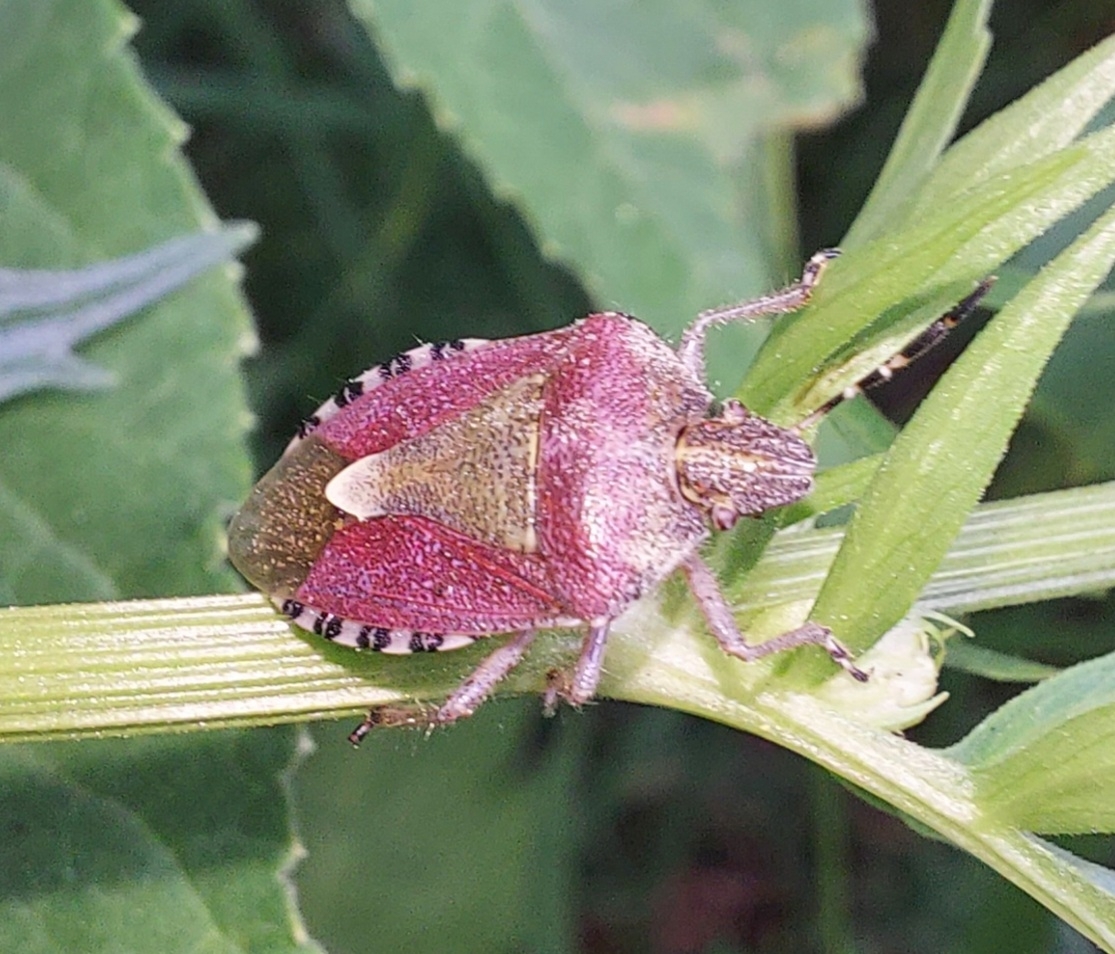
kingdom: Animalia
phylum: Arthropoda
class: Insecta
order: Hemiptera
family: Pentatomidae
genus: Dolycoris
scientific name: Dolycoris baccarum
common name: Sloe bug
